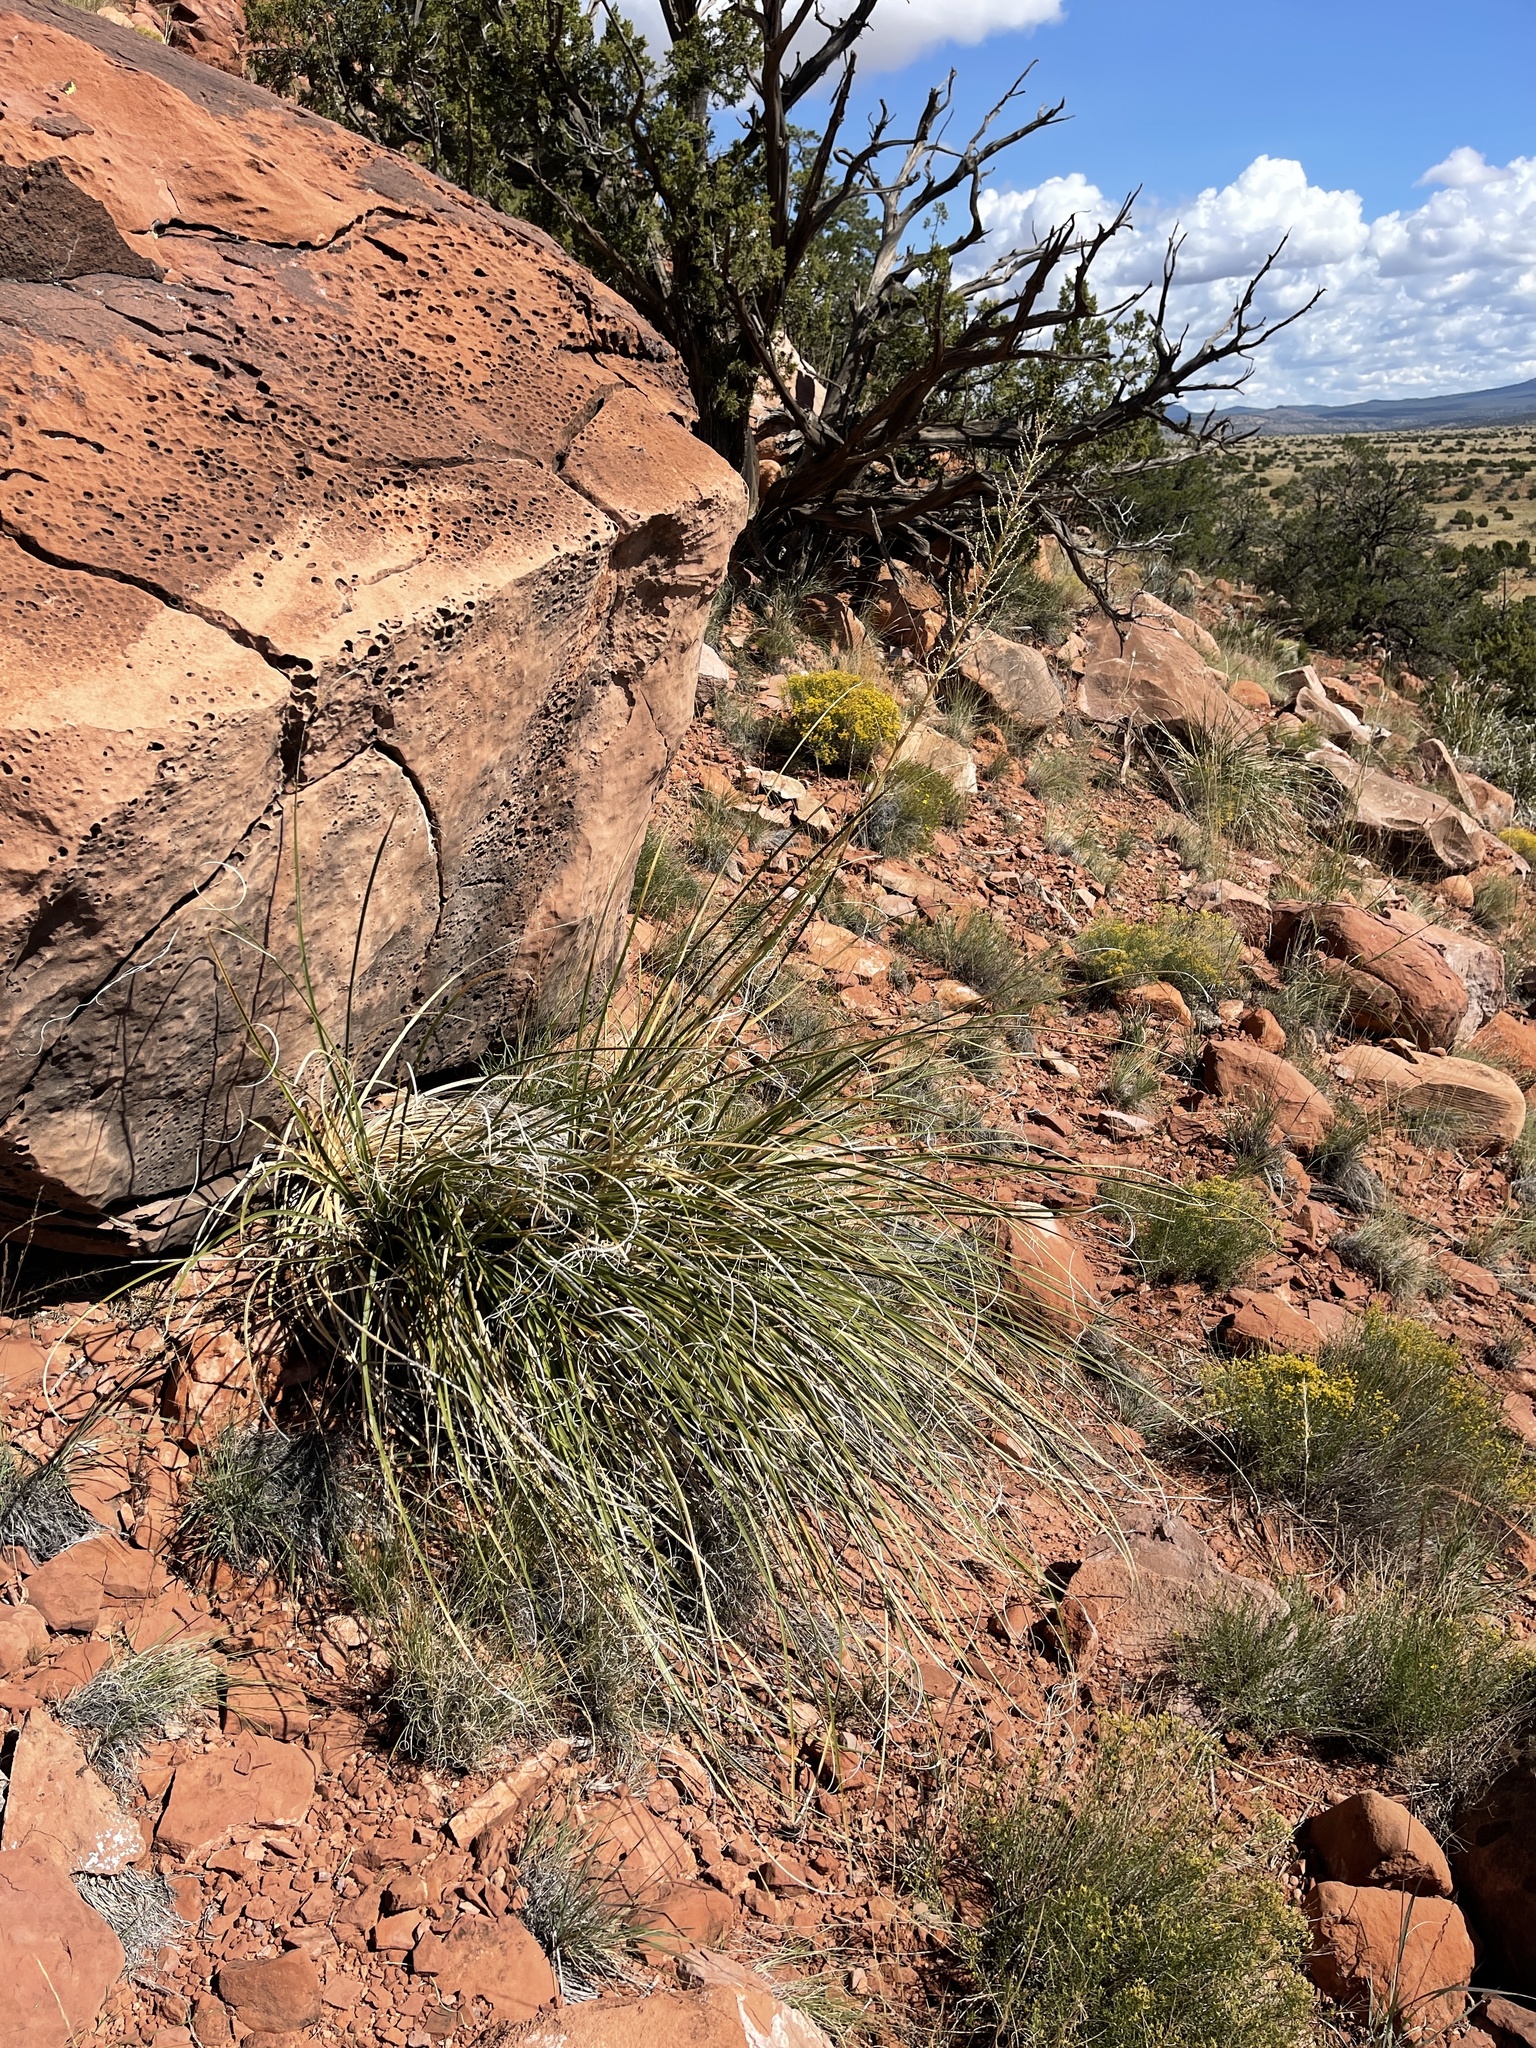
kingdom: Plantae
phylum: Tracheophyta
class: Liliopsida
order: Asparagales
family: Asparagaceae
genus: Nolina
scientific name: Nolina microcarpa
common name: Bear-grass
